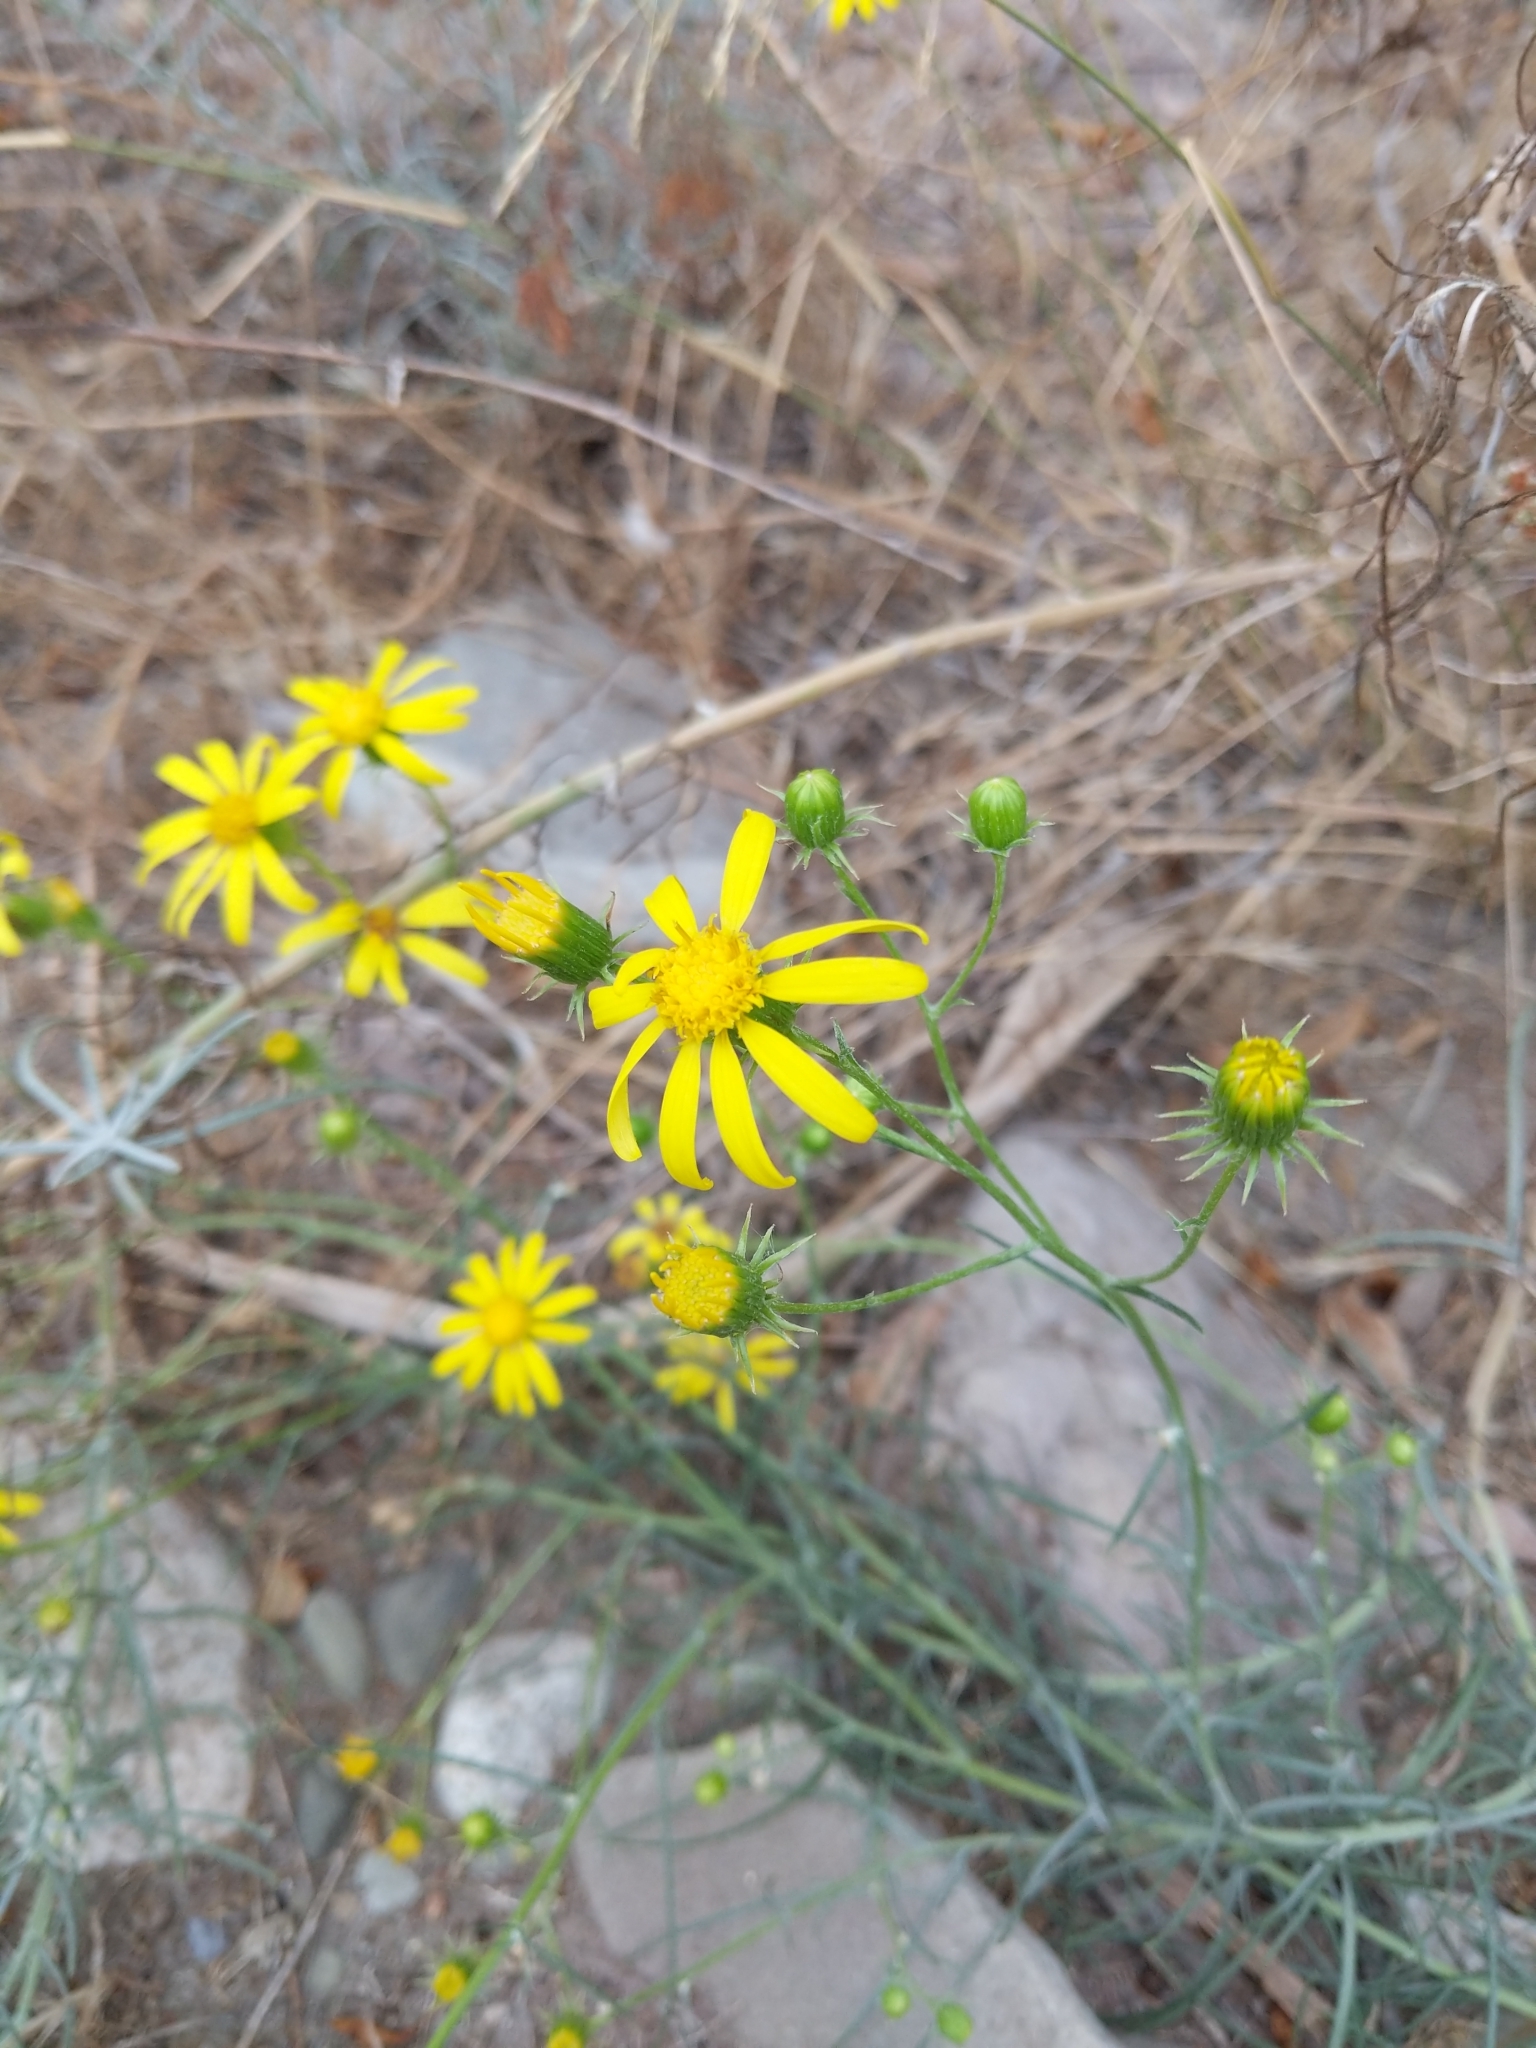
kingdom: Plantae
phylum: Tracheophyta
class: Magnoliopsida
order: Asterales
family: Asteraceae
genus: Senecio
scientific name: Senecio flaccidus
